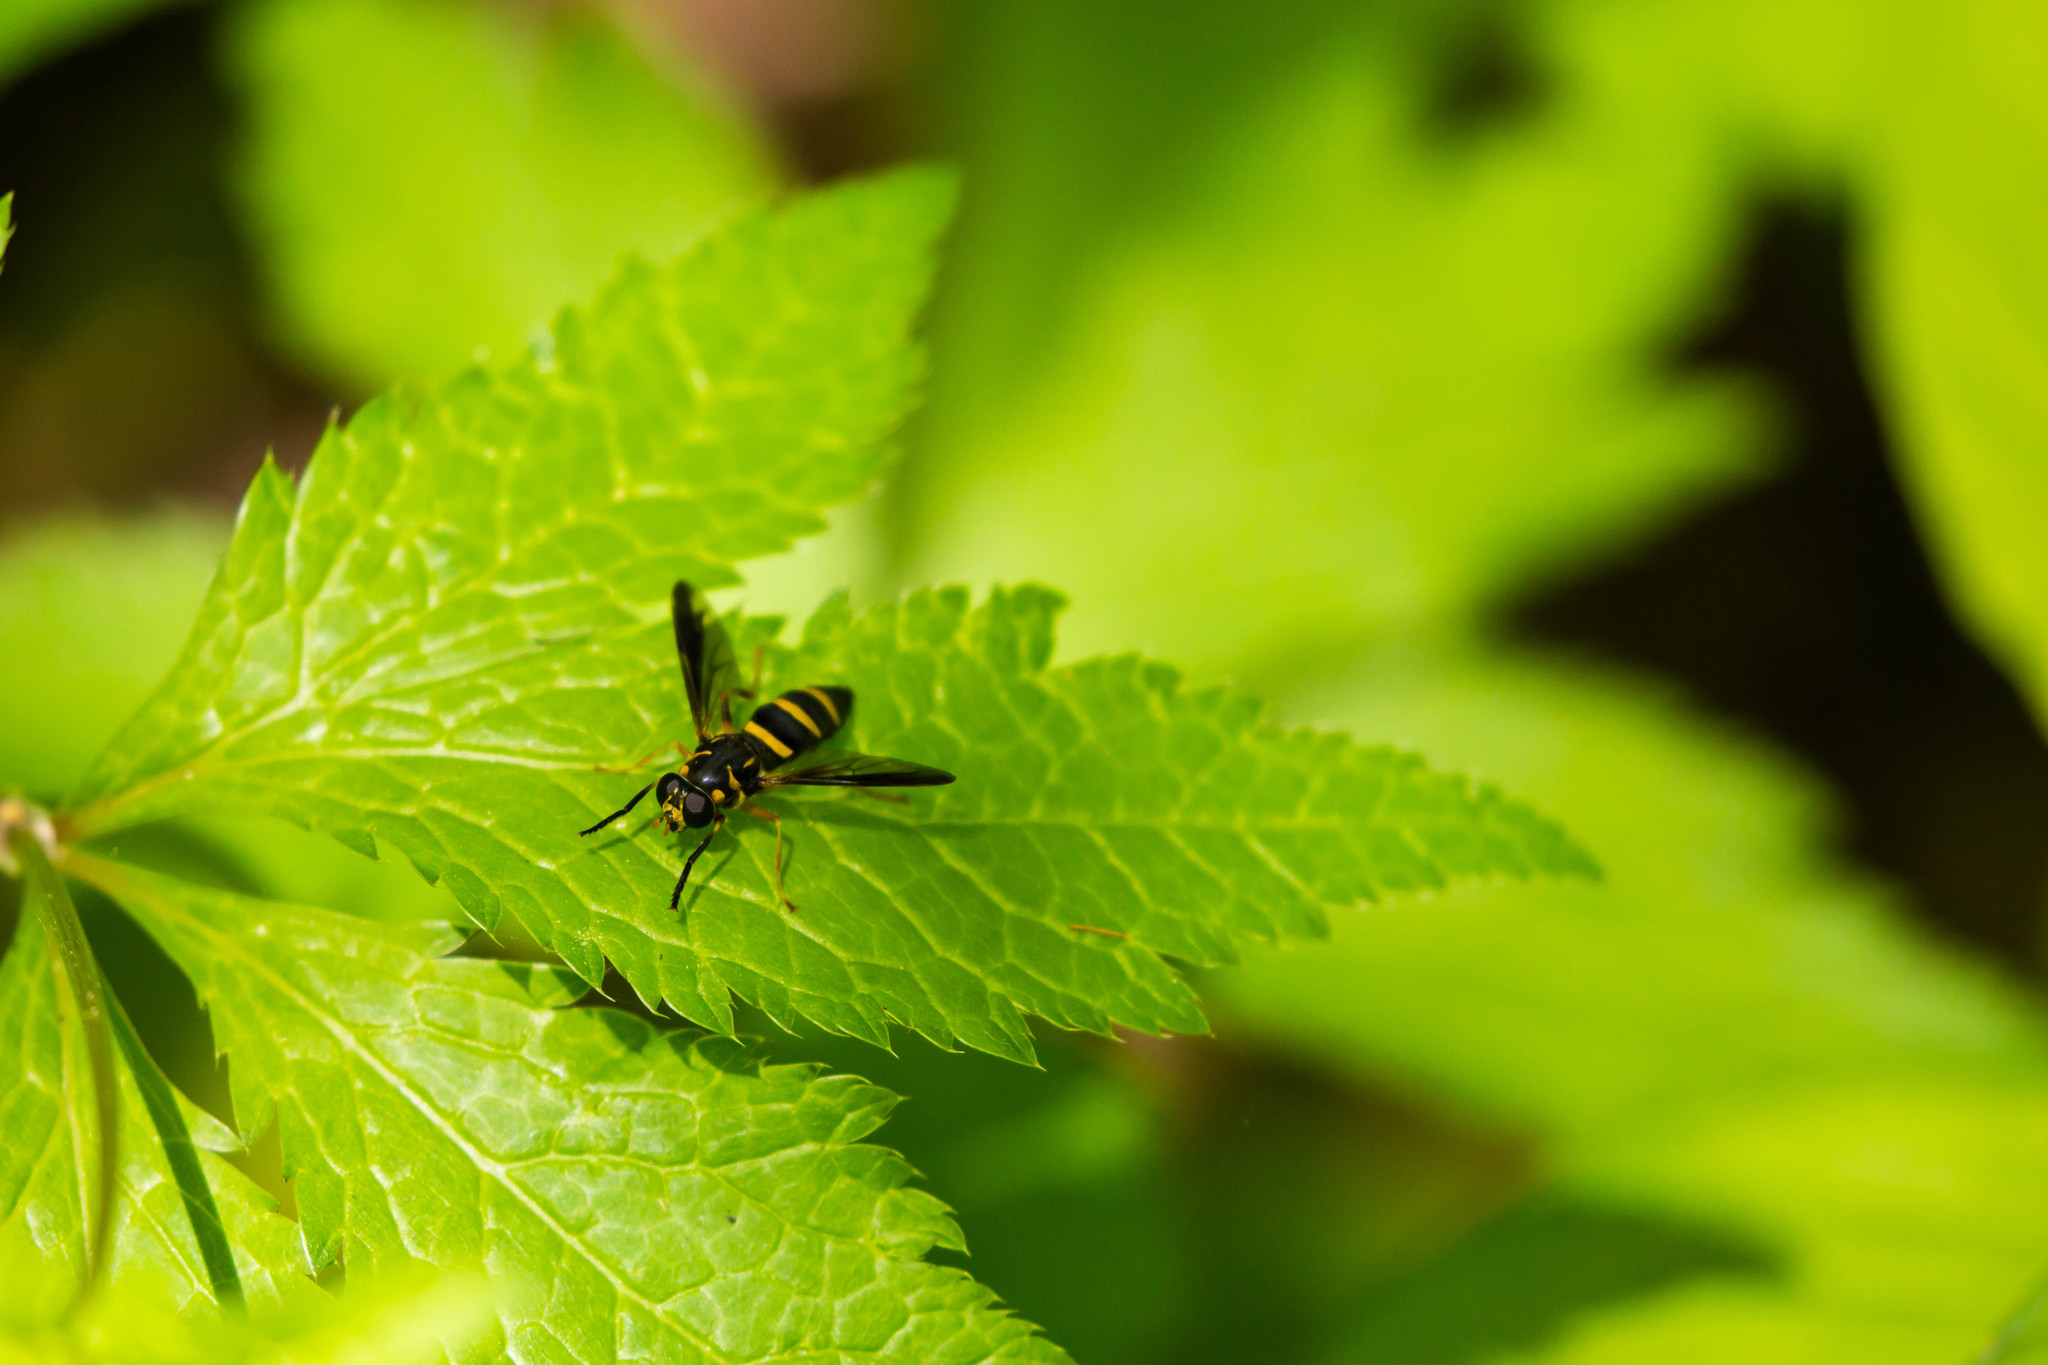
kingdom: Animalia
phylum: Arthropoda
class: Insecta
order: Diptera
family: Syrphidae
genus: Temnostoma
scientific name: Temnostoma trifasciatum
